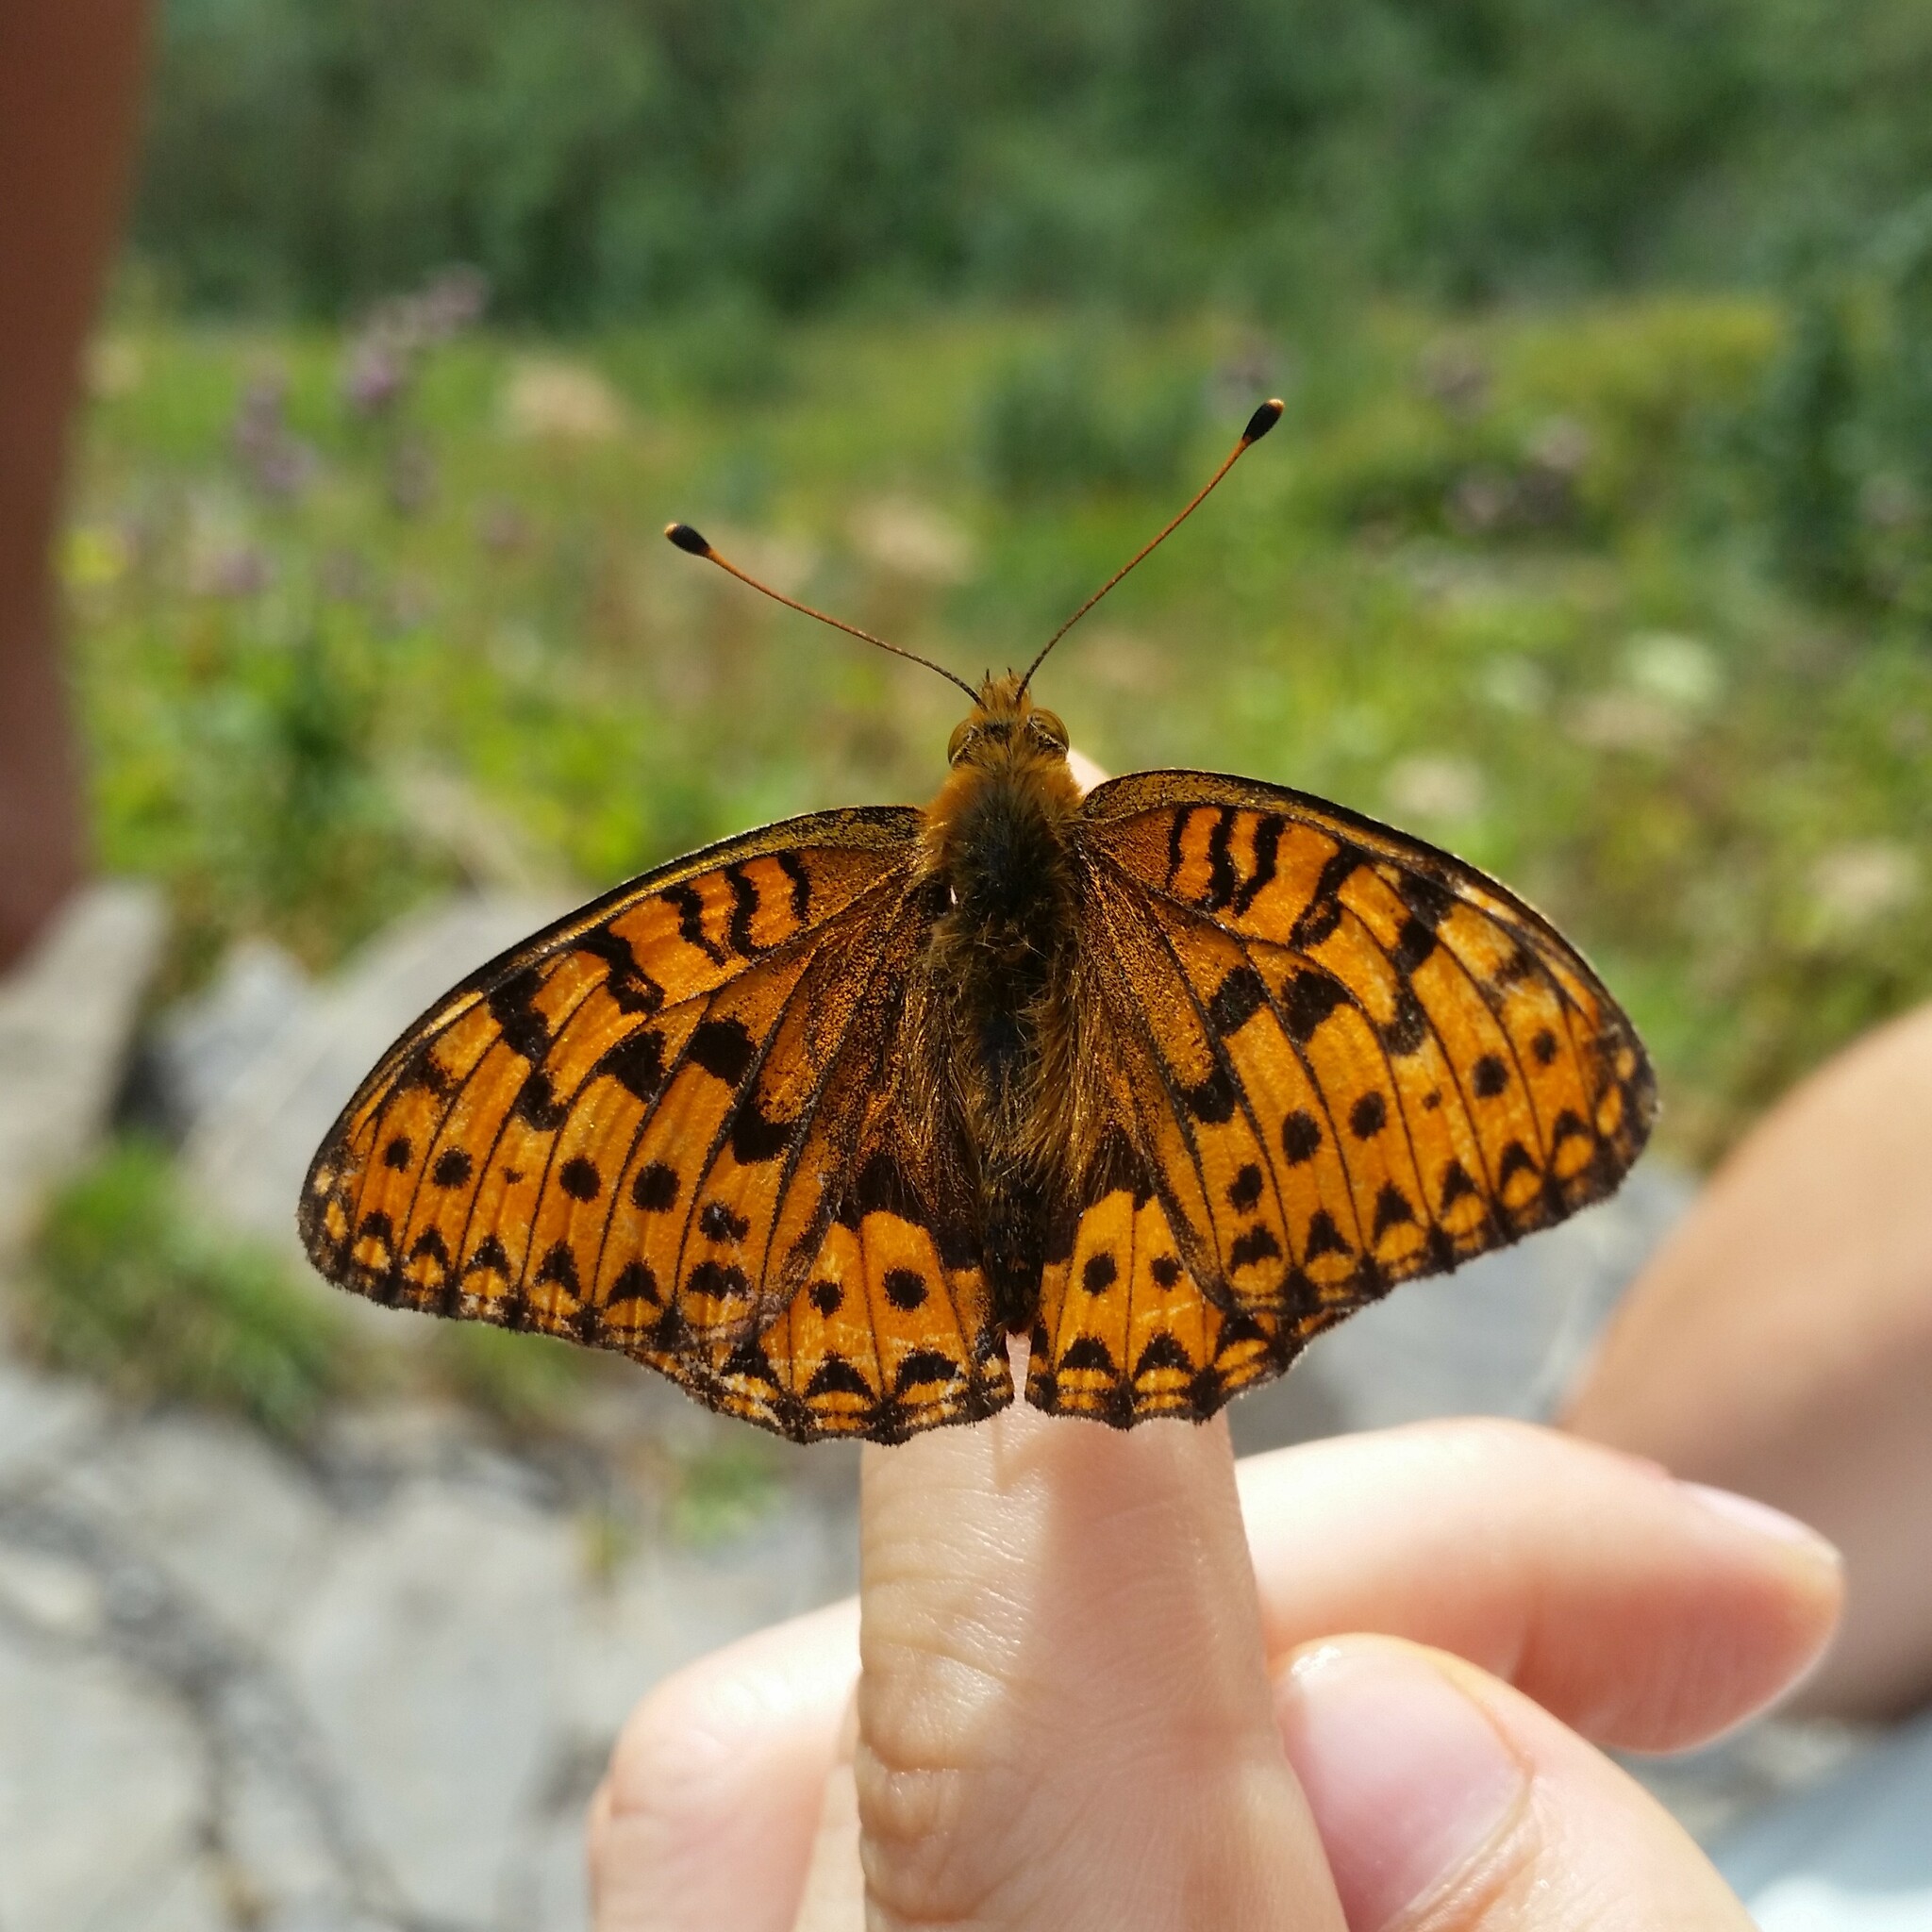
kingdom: Animalia
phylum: Arthropoda
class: Insecta
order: Lepidoptera
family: Nymphalidae
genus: Speyeria
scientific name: Speyeria aglaja
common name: Dark green fritillary
